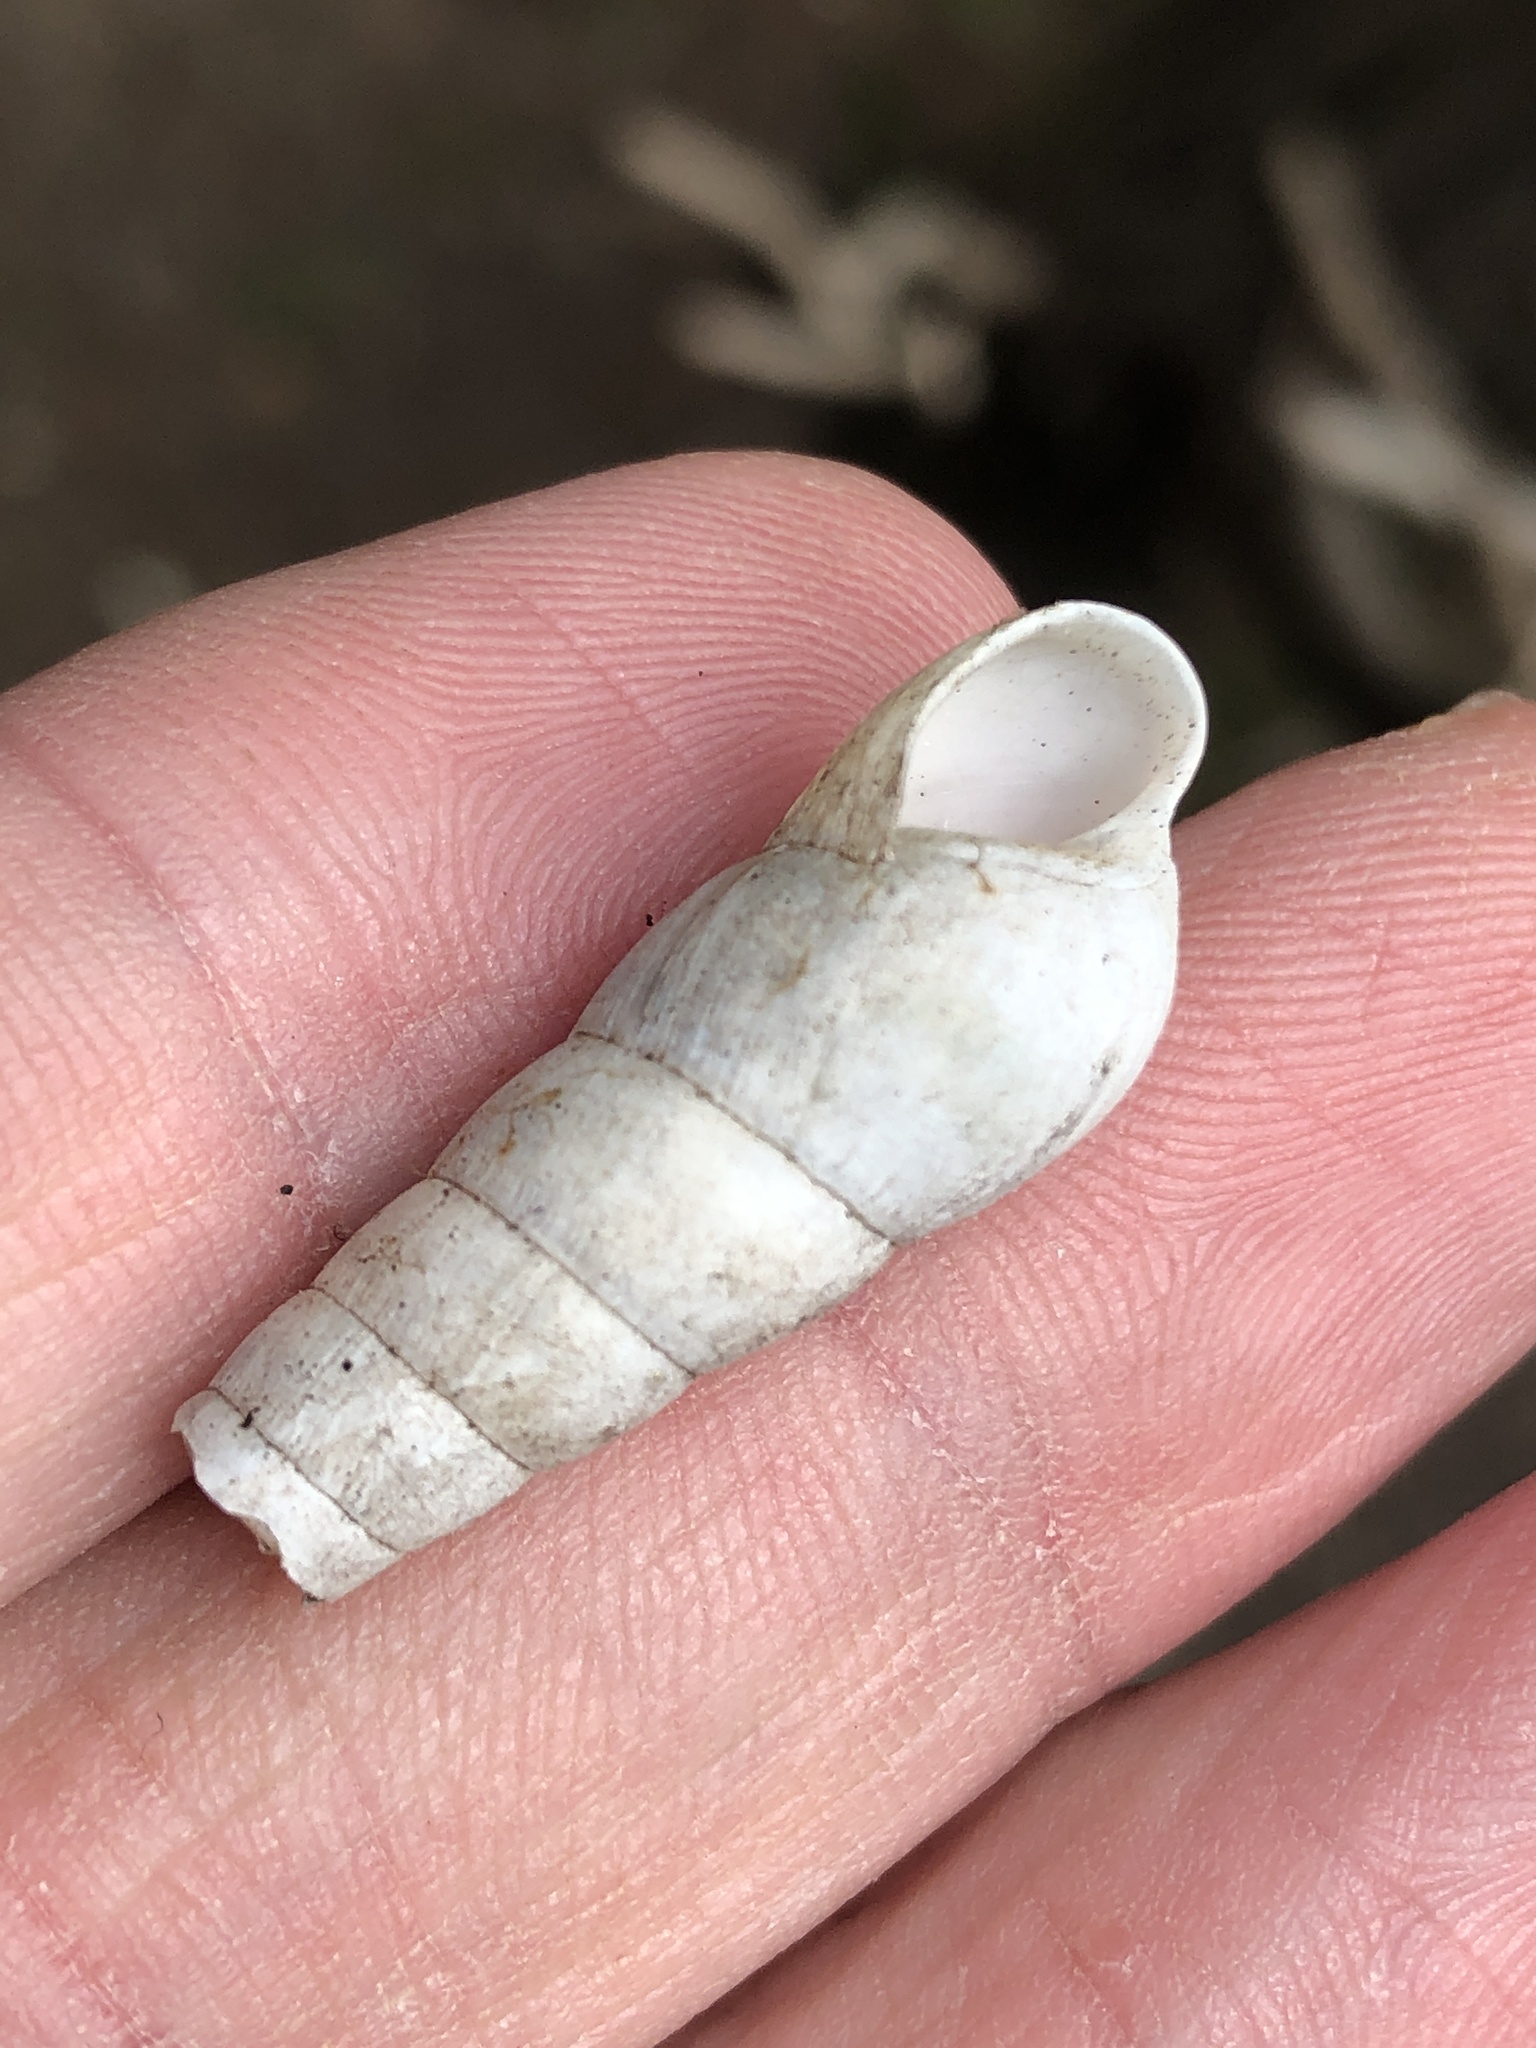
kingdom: Animalia
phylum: Mollusca
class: Gastropoda
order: Stylommatophora
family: Achatinidae
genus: Rumina
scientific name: Rumina decollata
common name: Decollate snail
